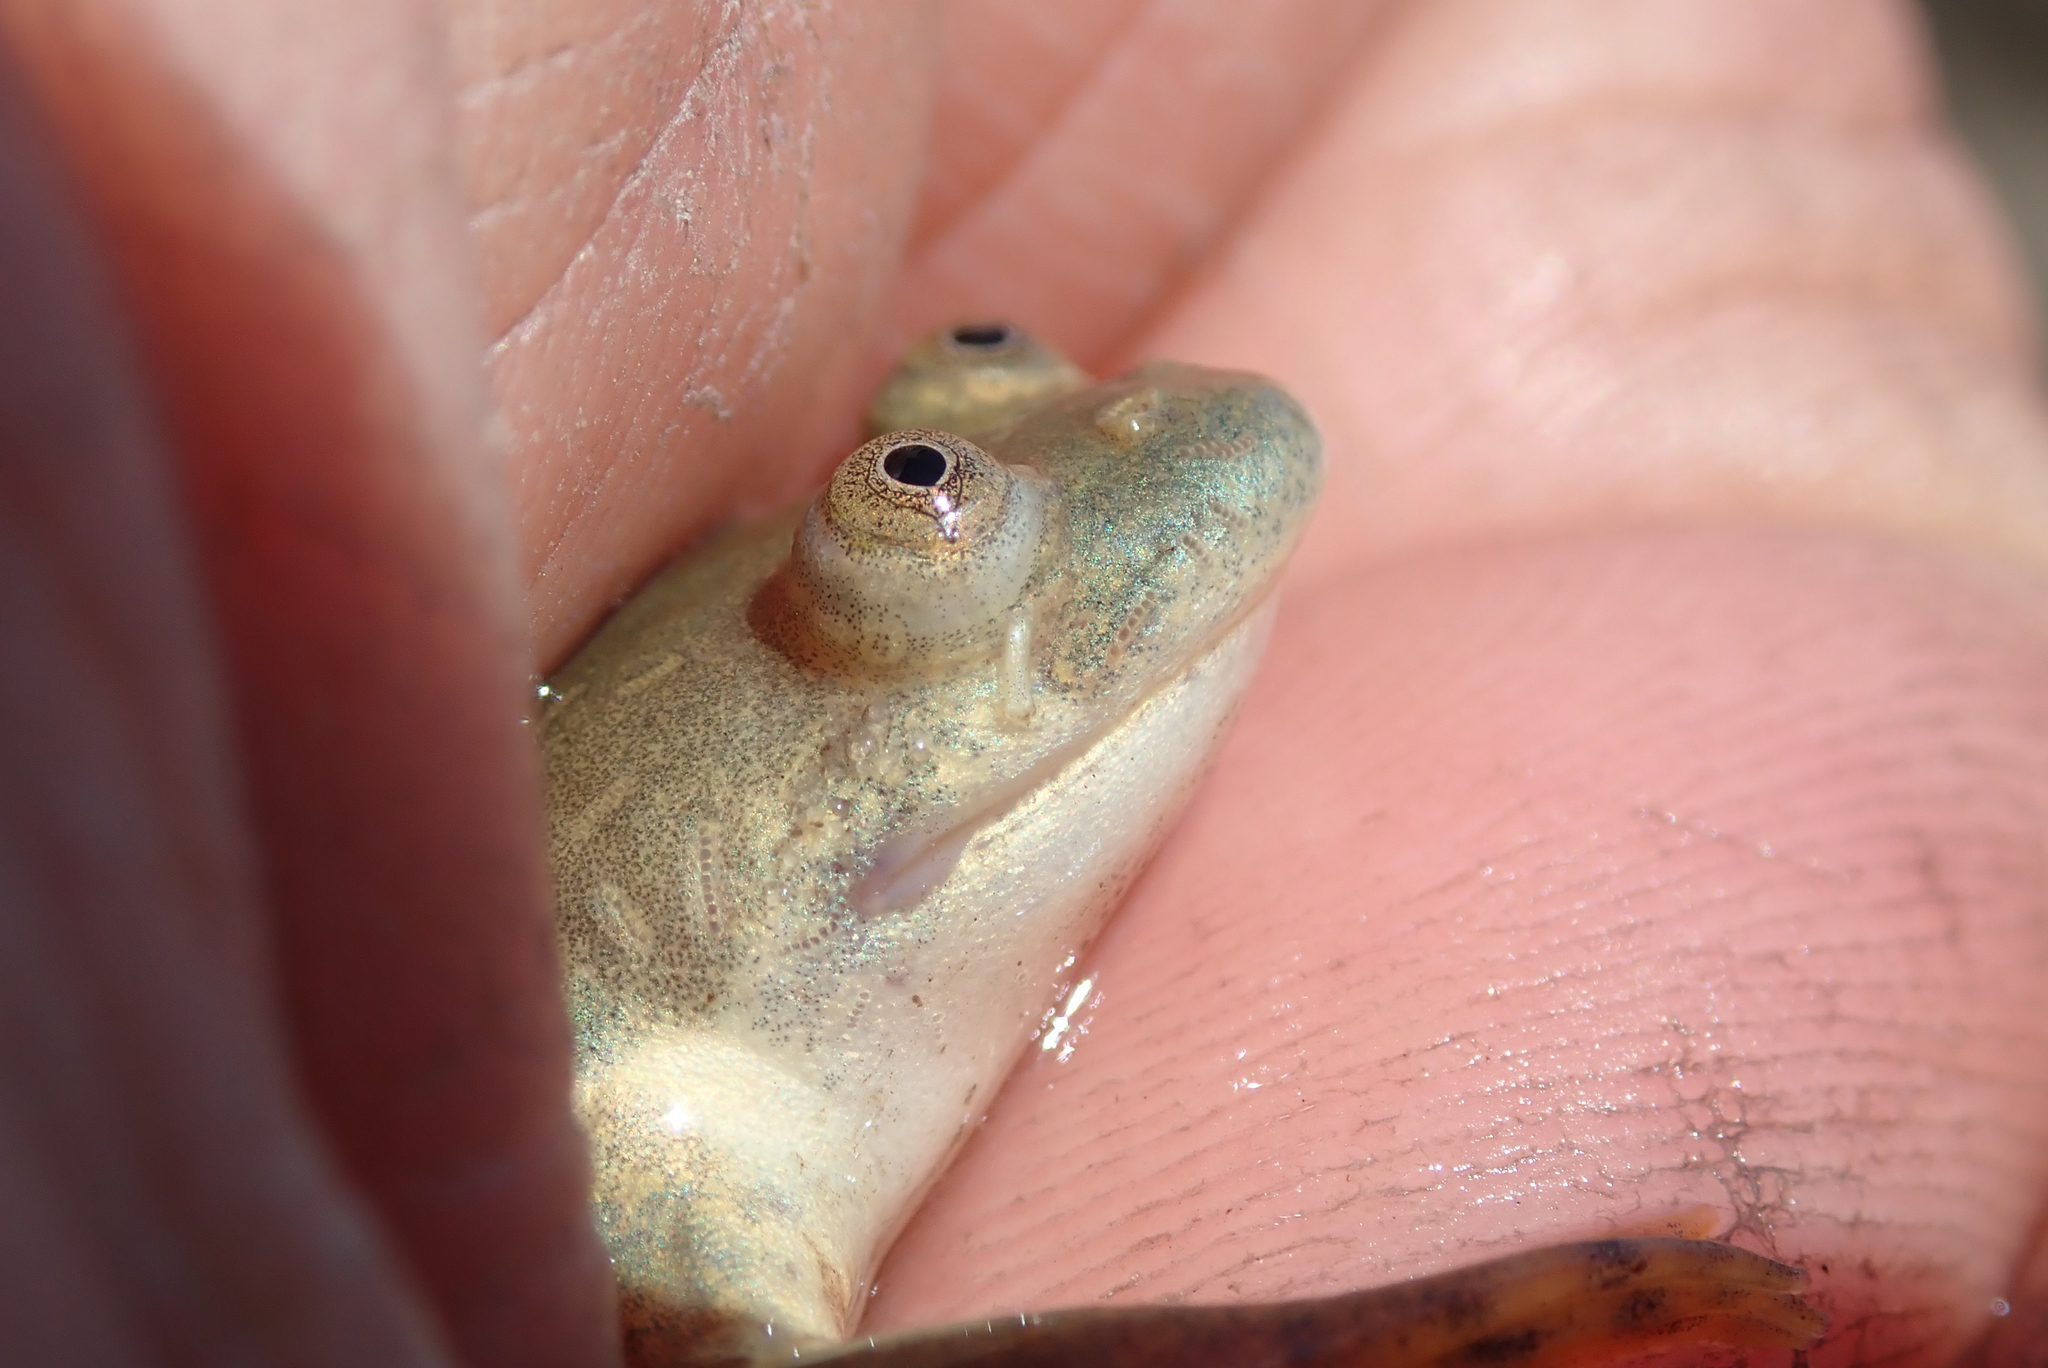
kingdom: Animalia
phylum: Chordata
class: Amphibia
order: Anura
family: Pipidae
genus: Xenopus
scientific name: Xenopus muelleri
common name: Muller's clawed frog
